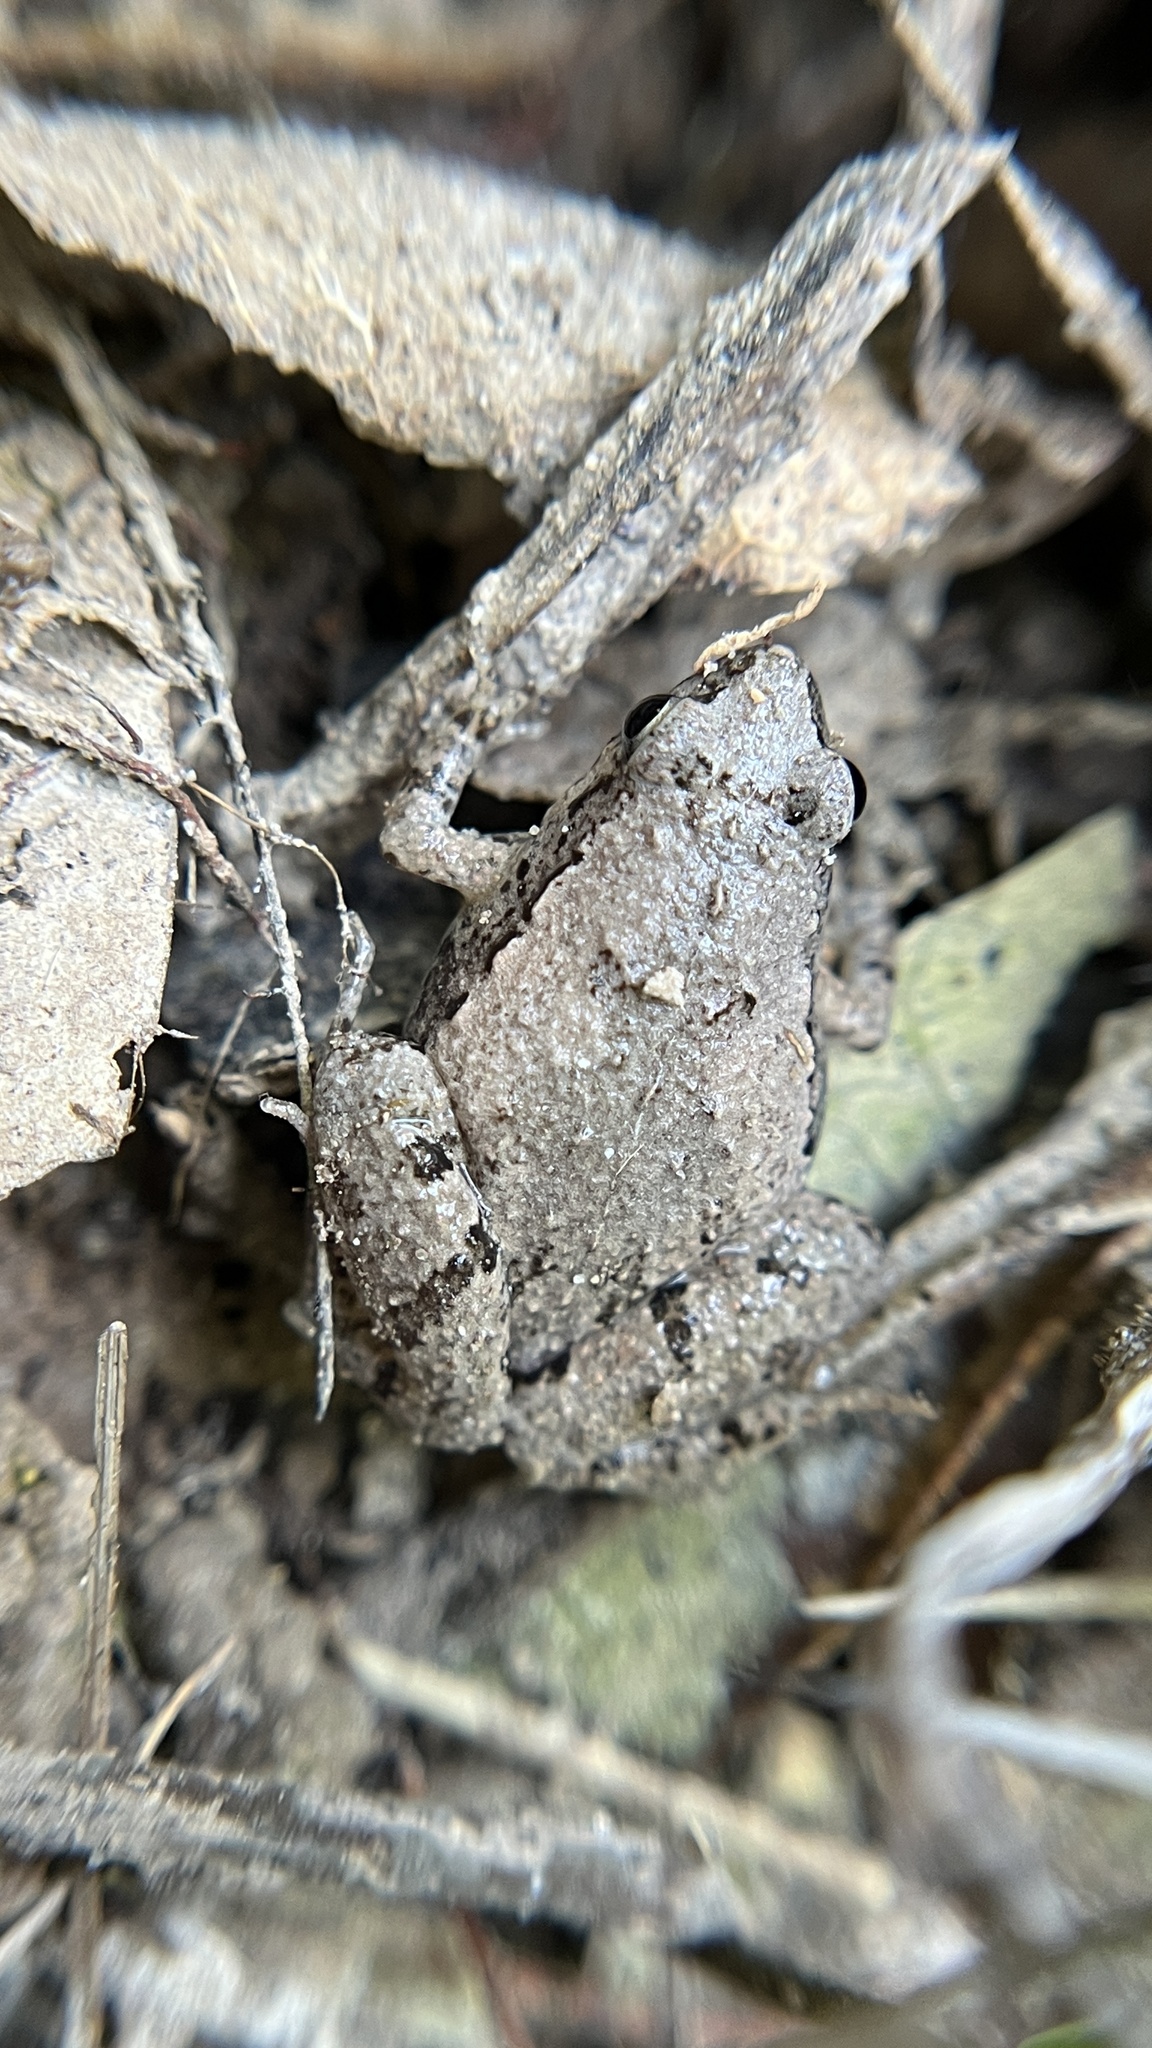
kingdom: Animalia
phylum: Chordata
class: Amphibia
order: Anura
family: Microhylidae
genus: Microhyla
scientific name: Microhyla mukhlesuri
